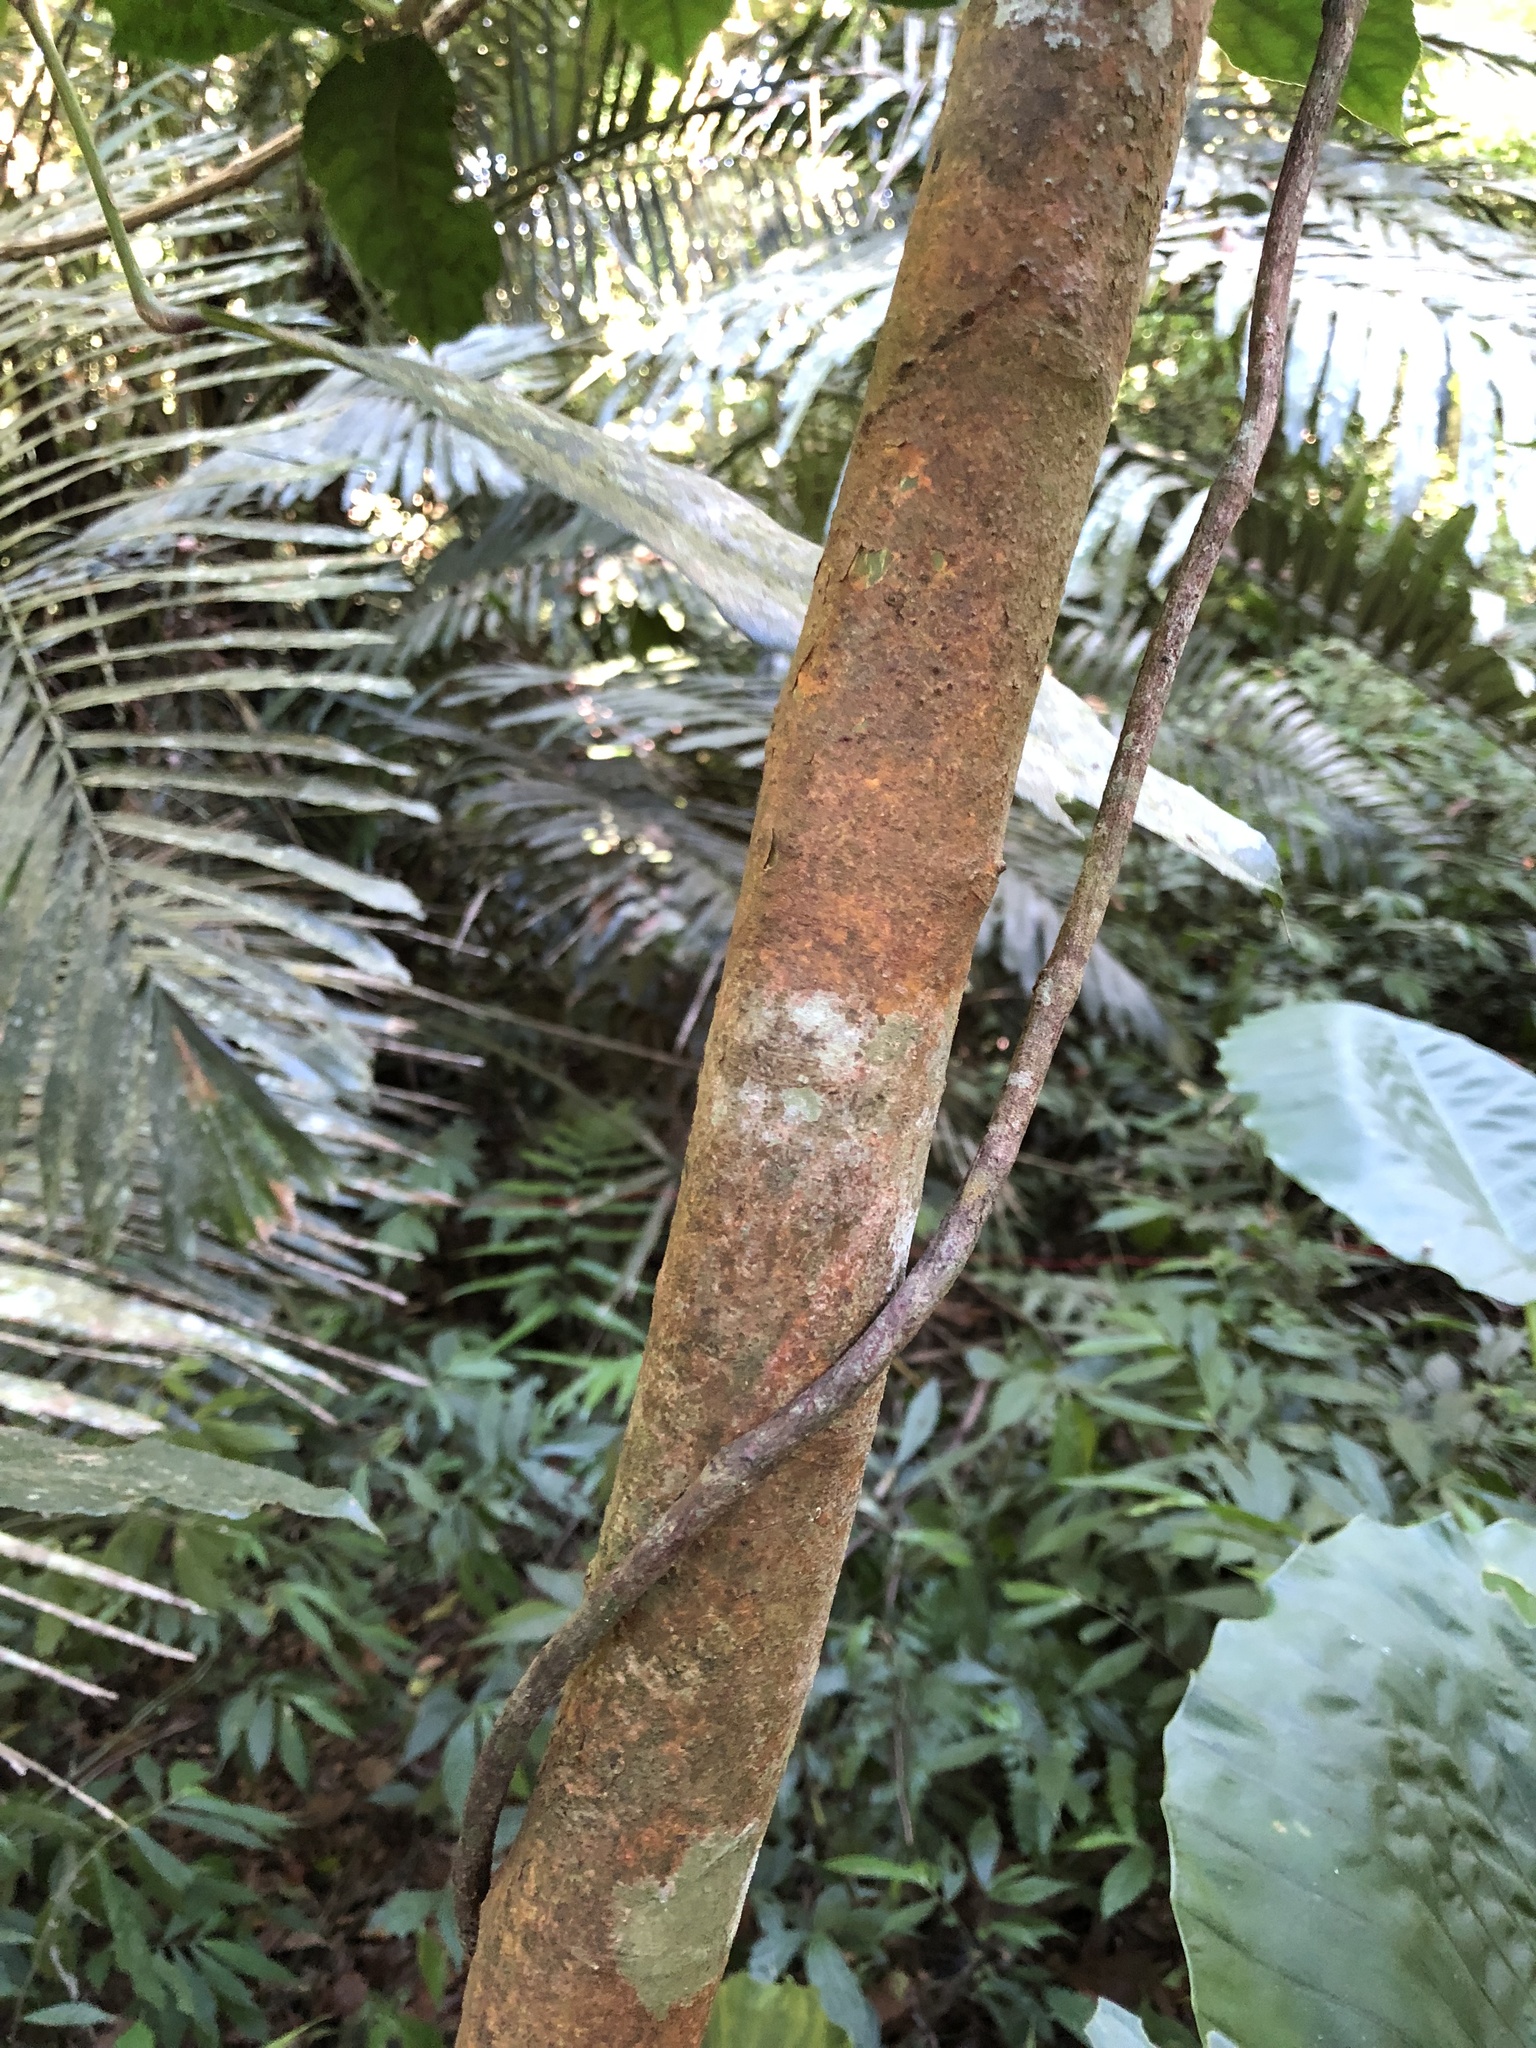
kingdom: Plantae
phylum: Tracheophyta
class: Magnoliopsida
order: Rosales
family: Moraceae
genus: Ficus
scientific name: Ficus erecta
